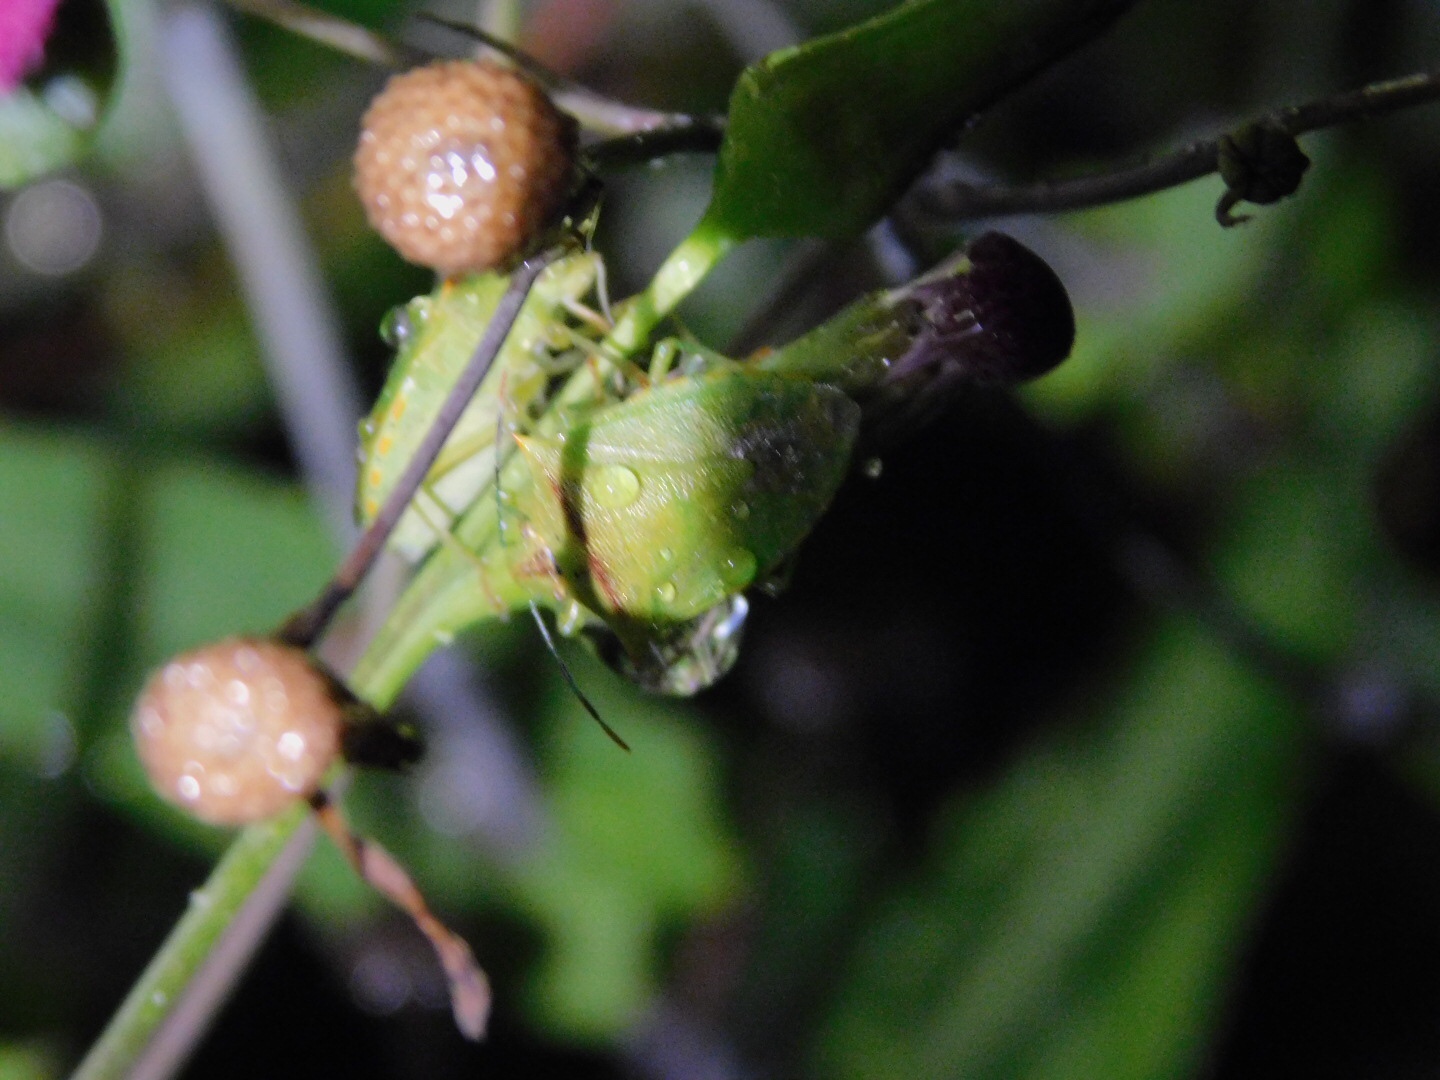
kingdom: Animalia
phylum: Arthropoda
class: Insecta
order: Hemiptera
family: Pentatomidae
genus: Thyanta
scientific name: Thyanta perditor
